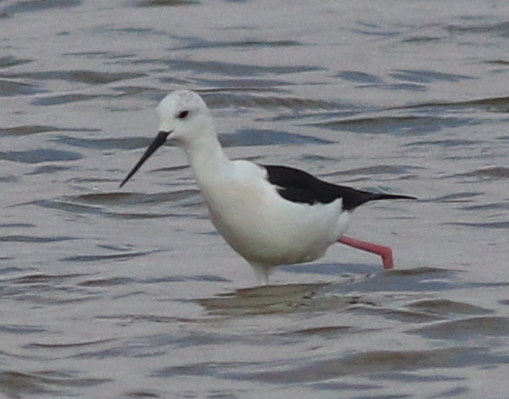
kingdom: Animalia
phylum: Chordata
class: Aves
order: Charadriiformes
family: Recurvirostridae
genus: Himantopus
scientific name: Himantopus himantopus
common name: Black-winged stilt
